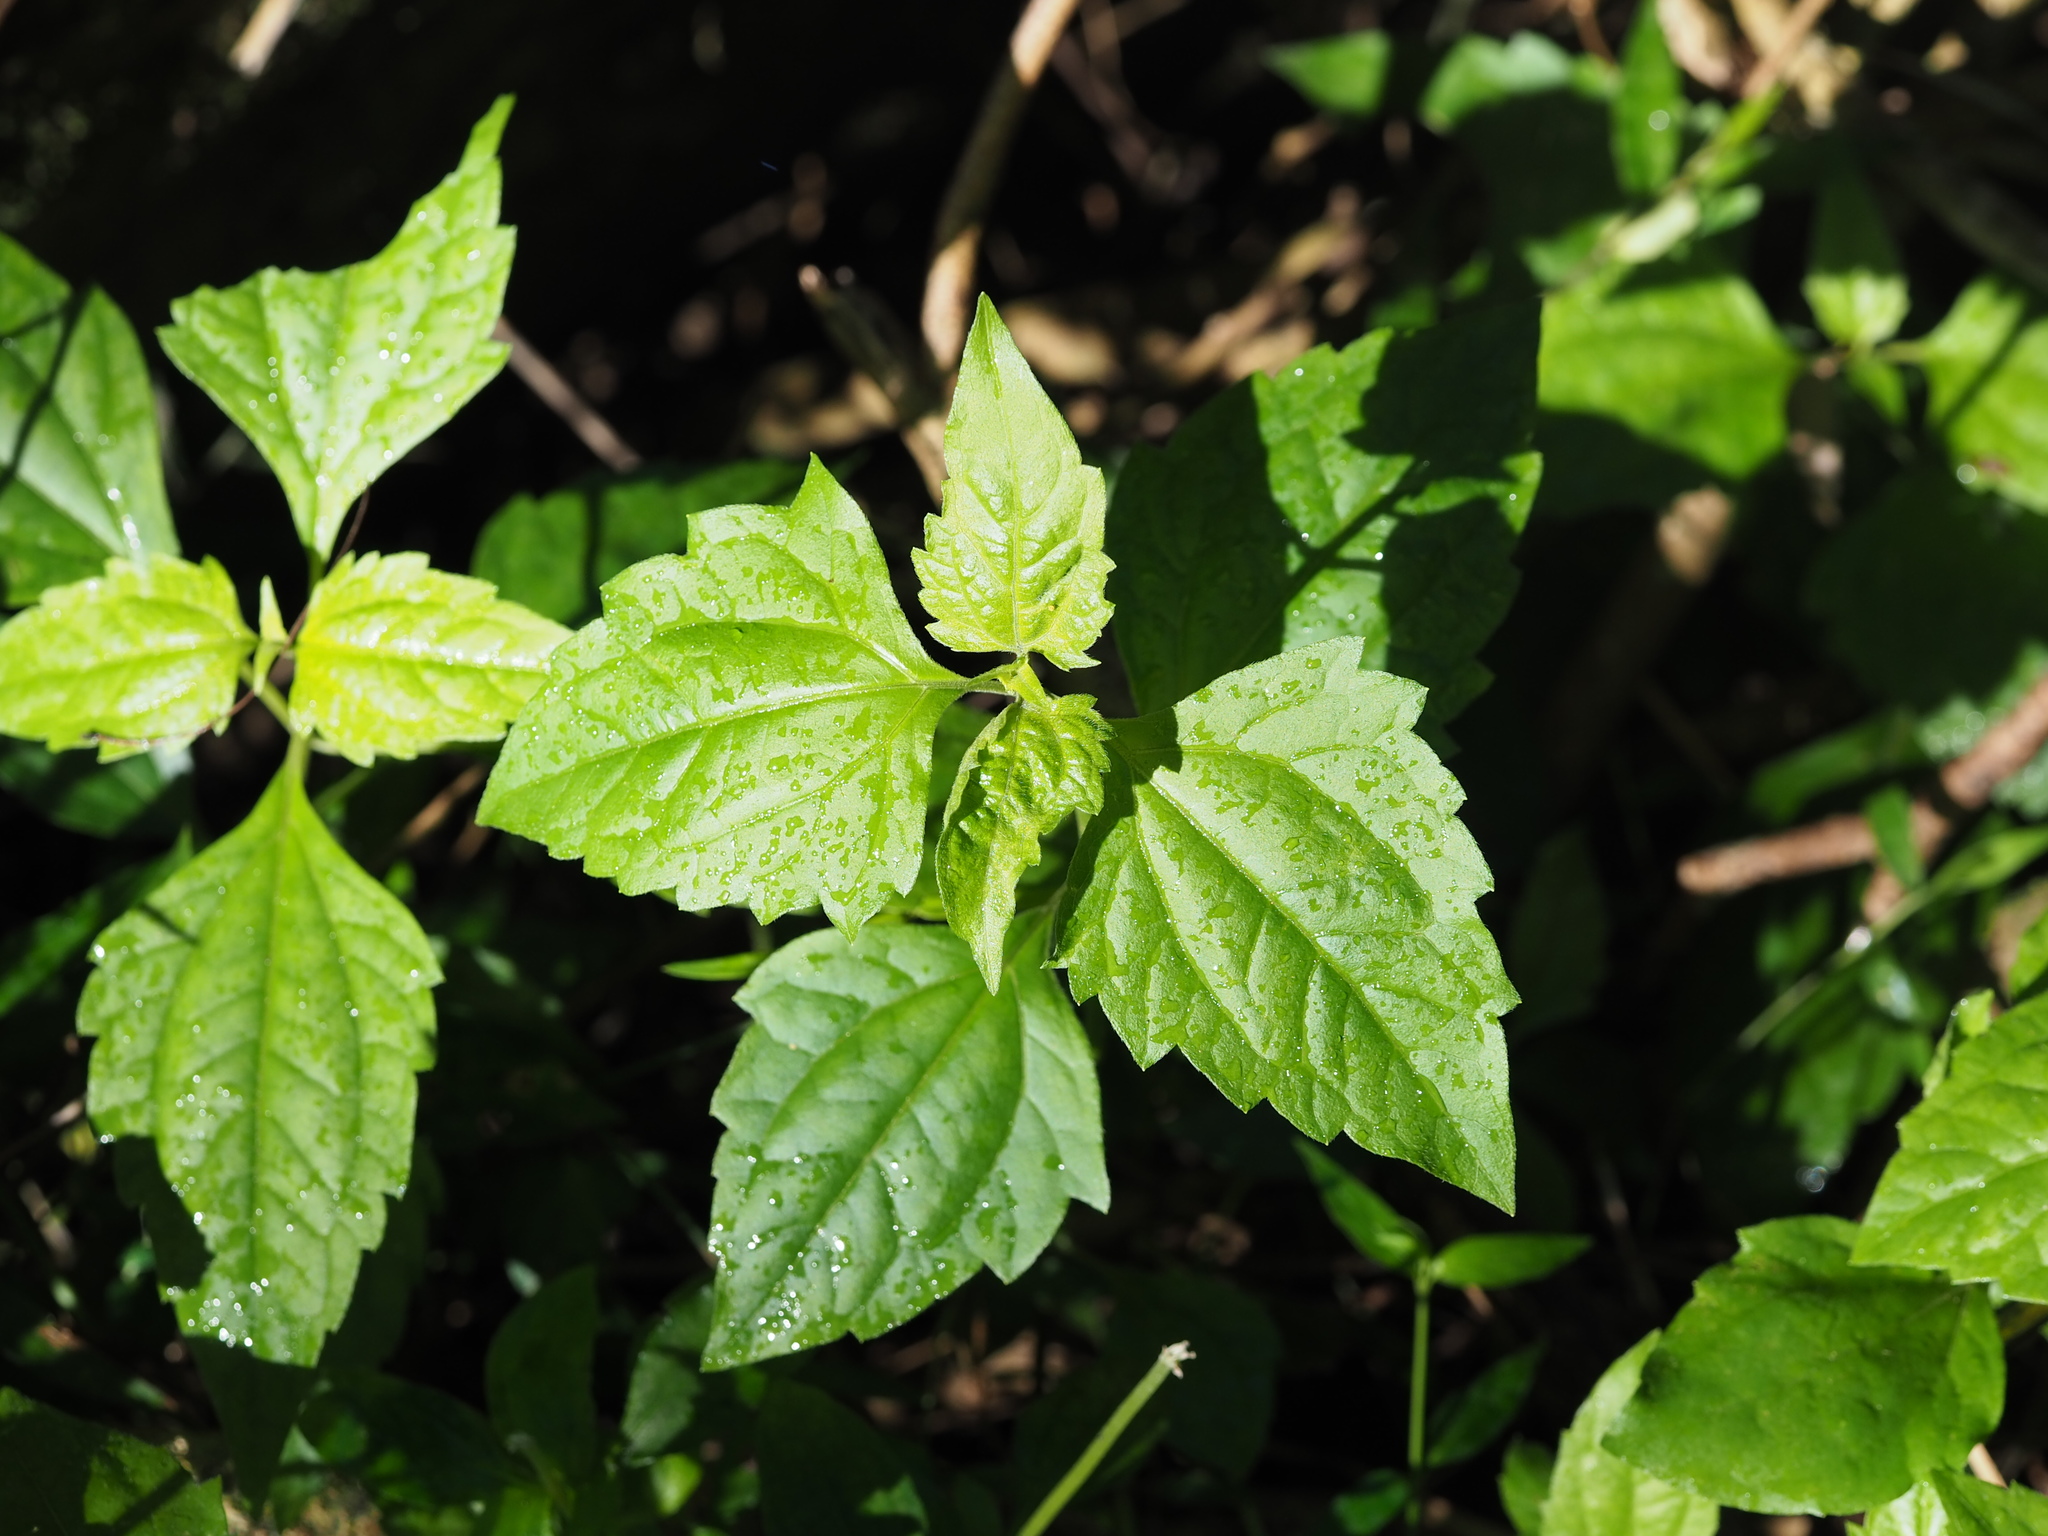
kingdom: Plantae
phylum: Tracheophyta
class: Magnoliopsida
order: Asterales
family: Asteraceae
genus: Chromolaena
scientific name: Chromolaena odorata
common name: Siamweed
